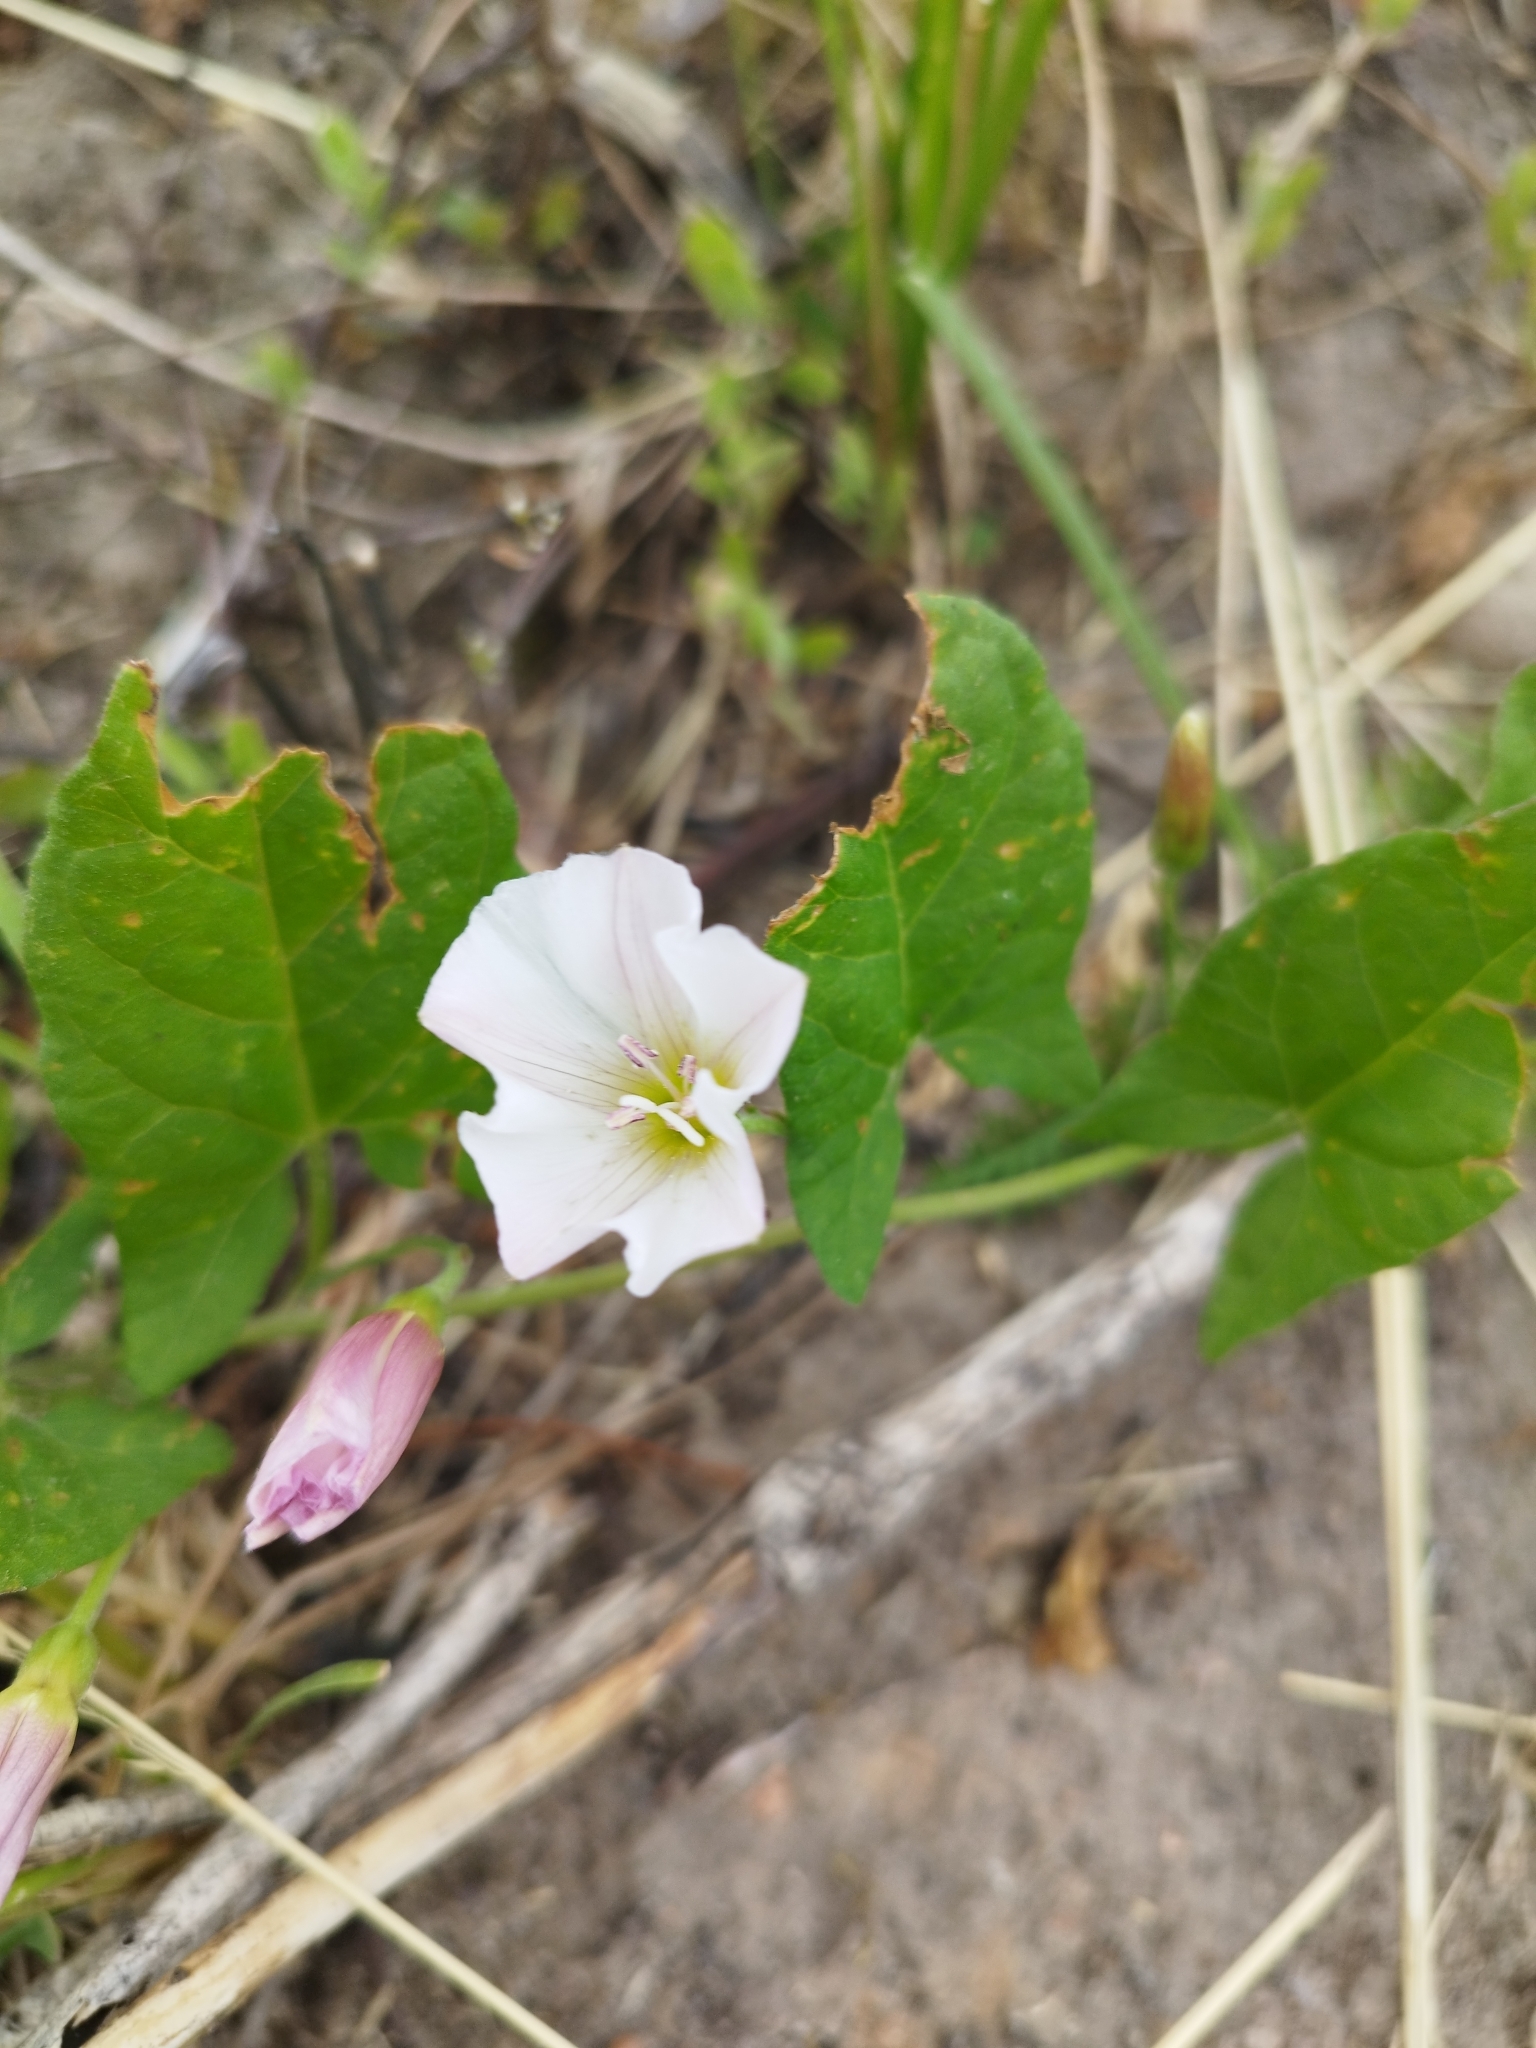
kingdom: Plantae
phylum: Tracheophyta
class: Magnoliopsida
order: Solanales
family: Convolvulaceae
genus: Convolvulus
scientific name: Convolvulus arvensis
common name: Field bindweed
